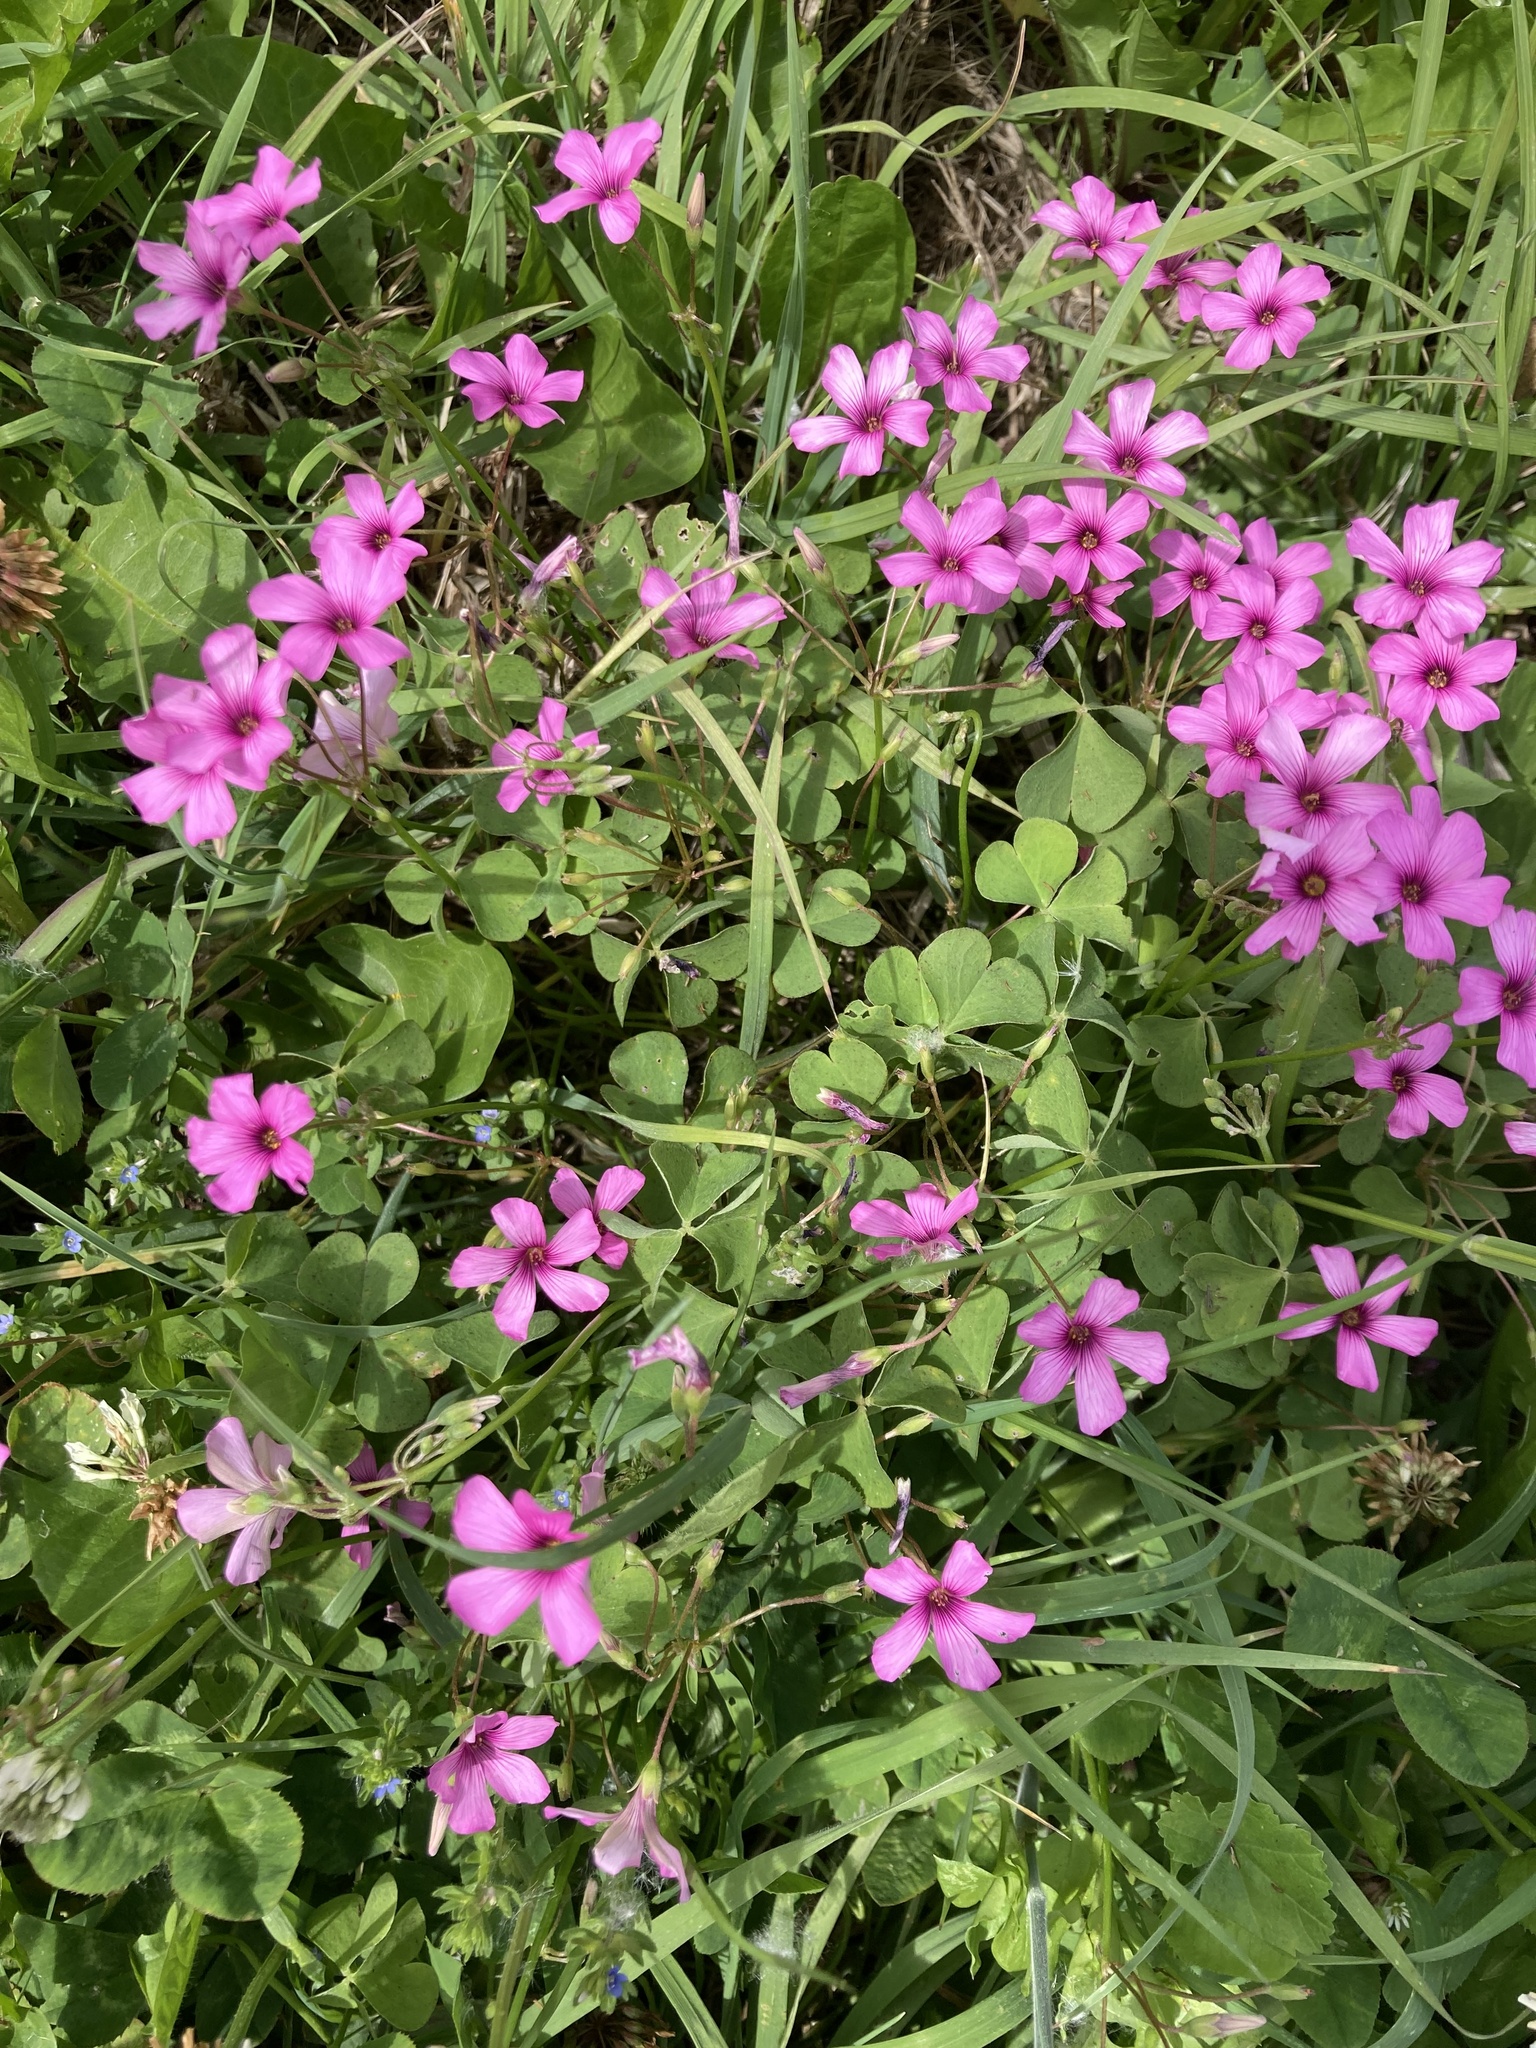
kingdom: Plantae
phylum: Tracheophyta
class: Magnoliopsida
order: Oxalidales
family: Oxalidaceae
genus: Oxalis
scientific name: Oxalis articulata
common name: Pink-sorrel
